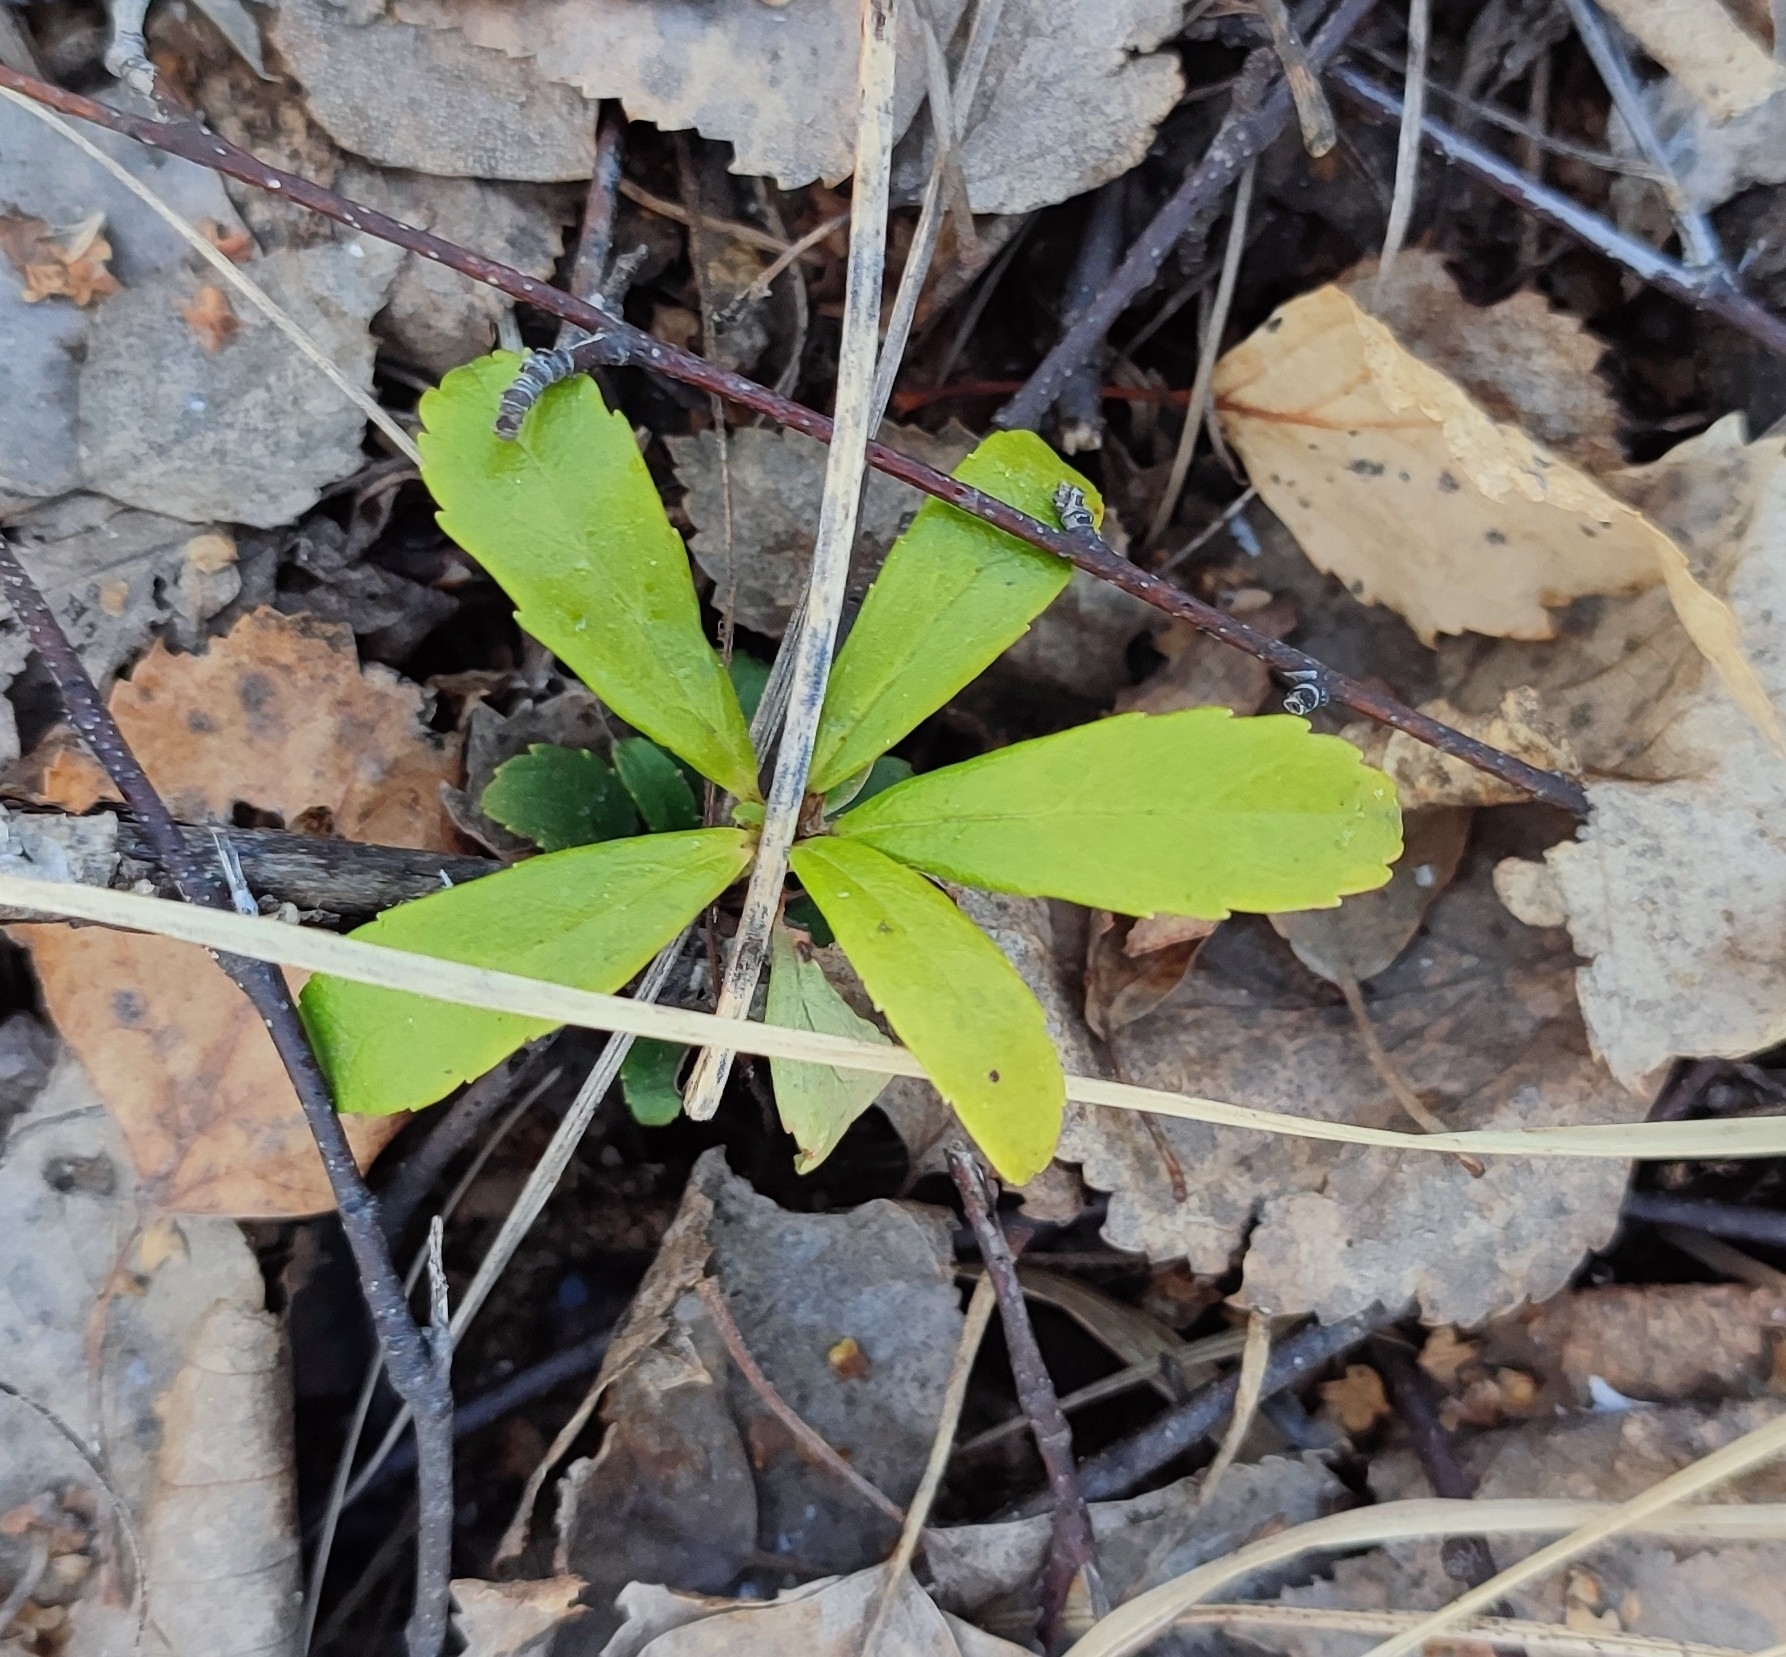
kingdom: Plantae
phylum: Tracheophyta
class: Magnoliopsida
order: Ericales
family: Ericaceae
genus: Chimaphila
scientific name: Chimaphila umbellata
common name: Pipsissewa
